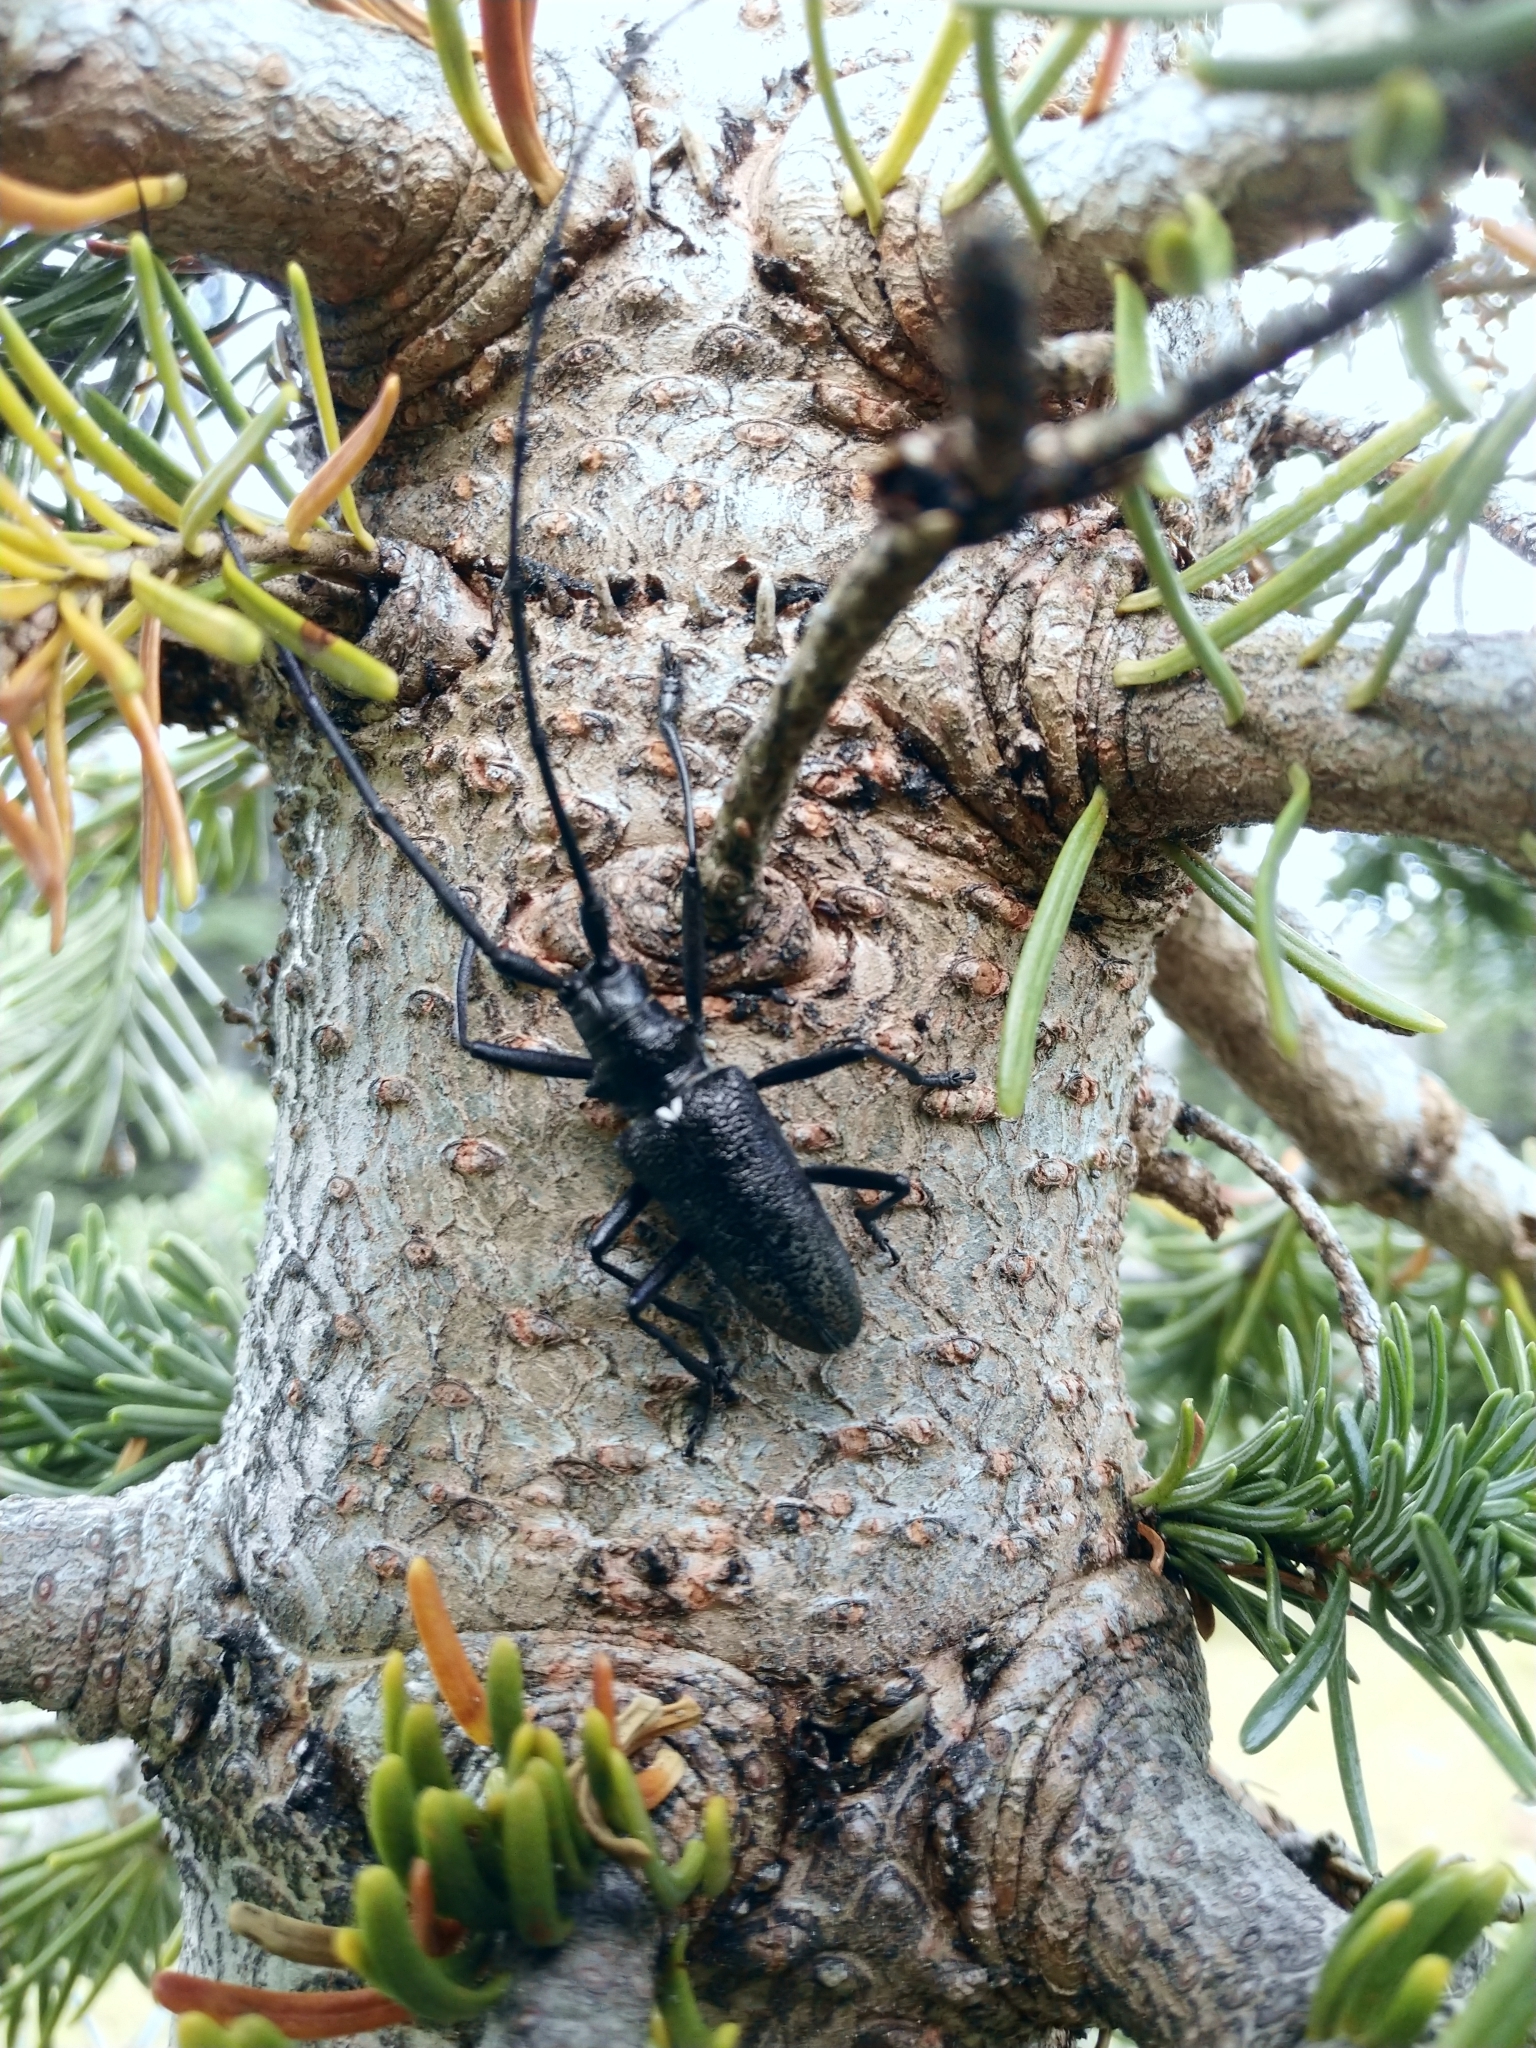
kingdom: Animalia
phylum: Arthropoda
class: Insecta
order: Coleoptera
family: Cerambycidae
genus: Monochamus
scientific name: Monochamus scutellatus
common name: White-spotted sawyer beetle
